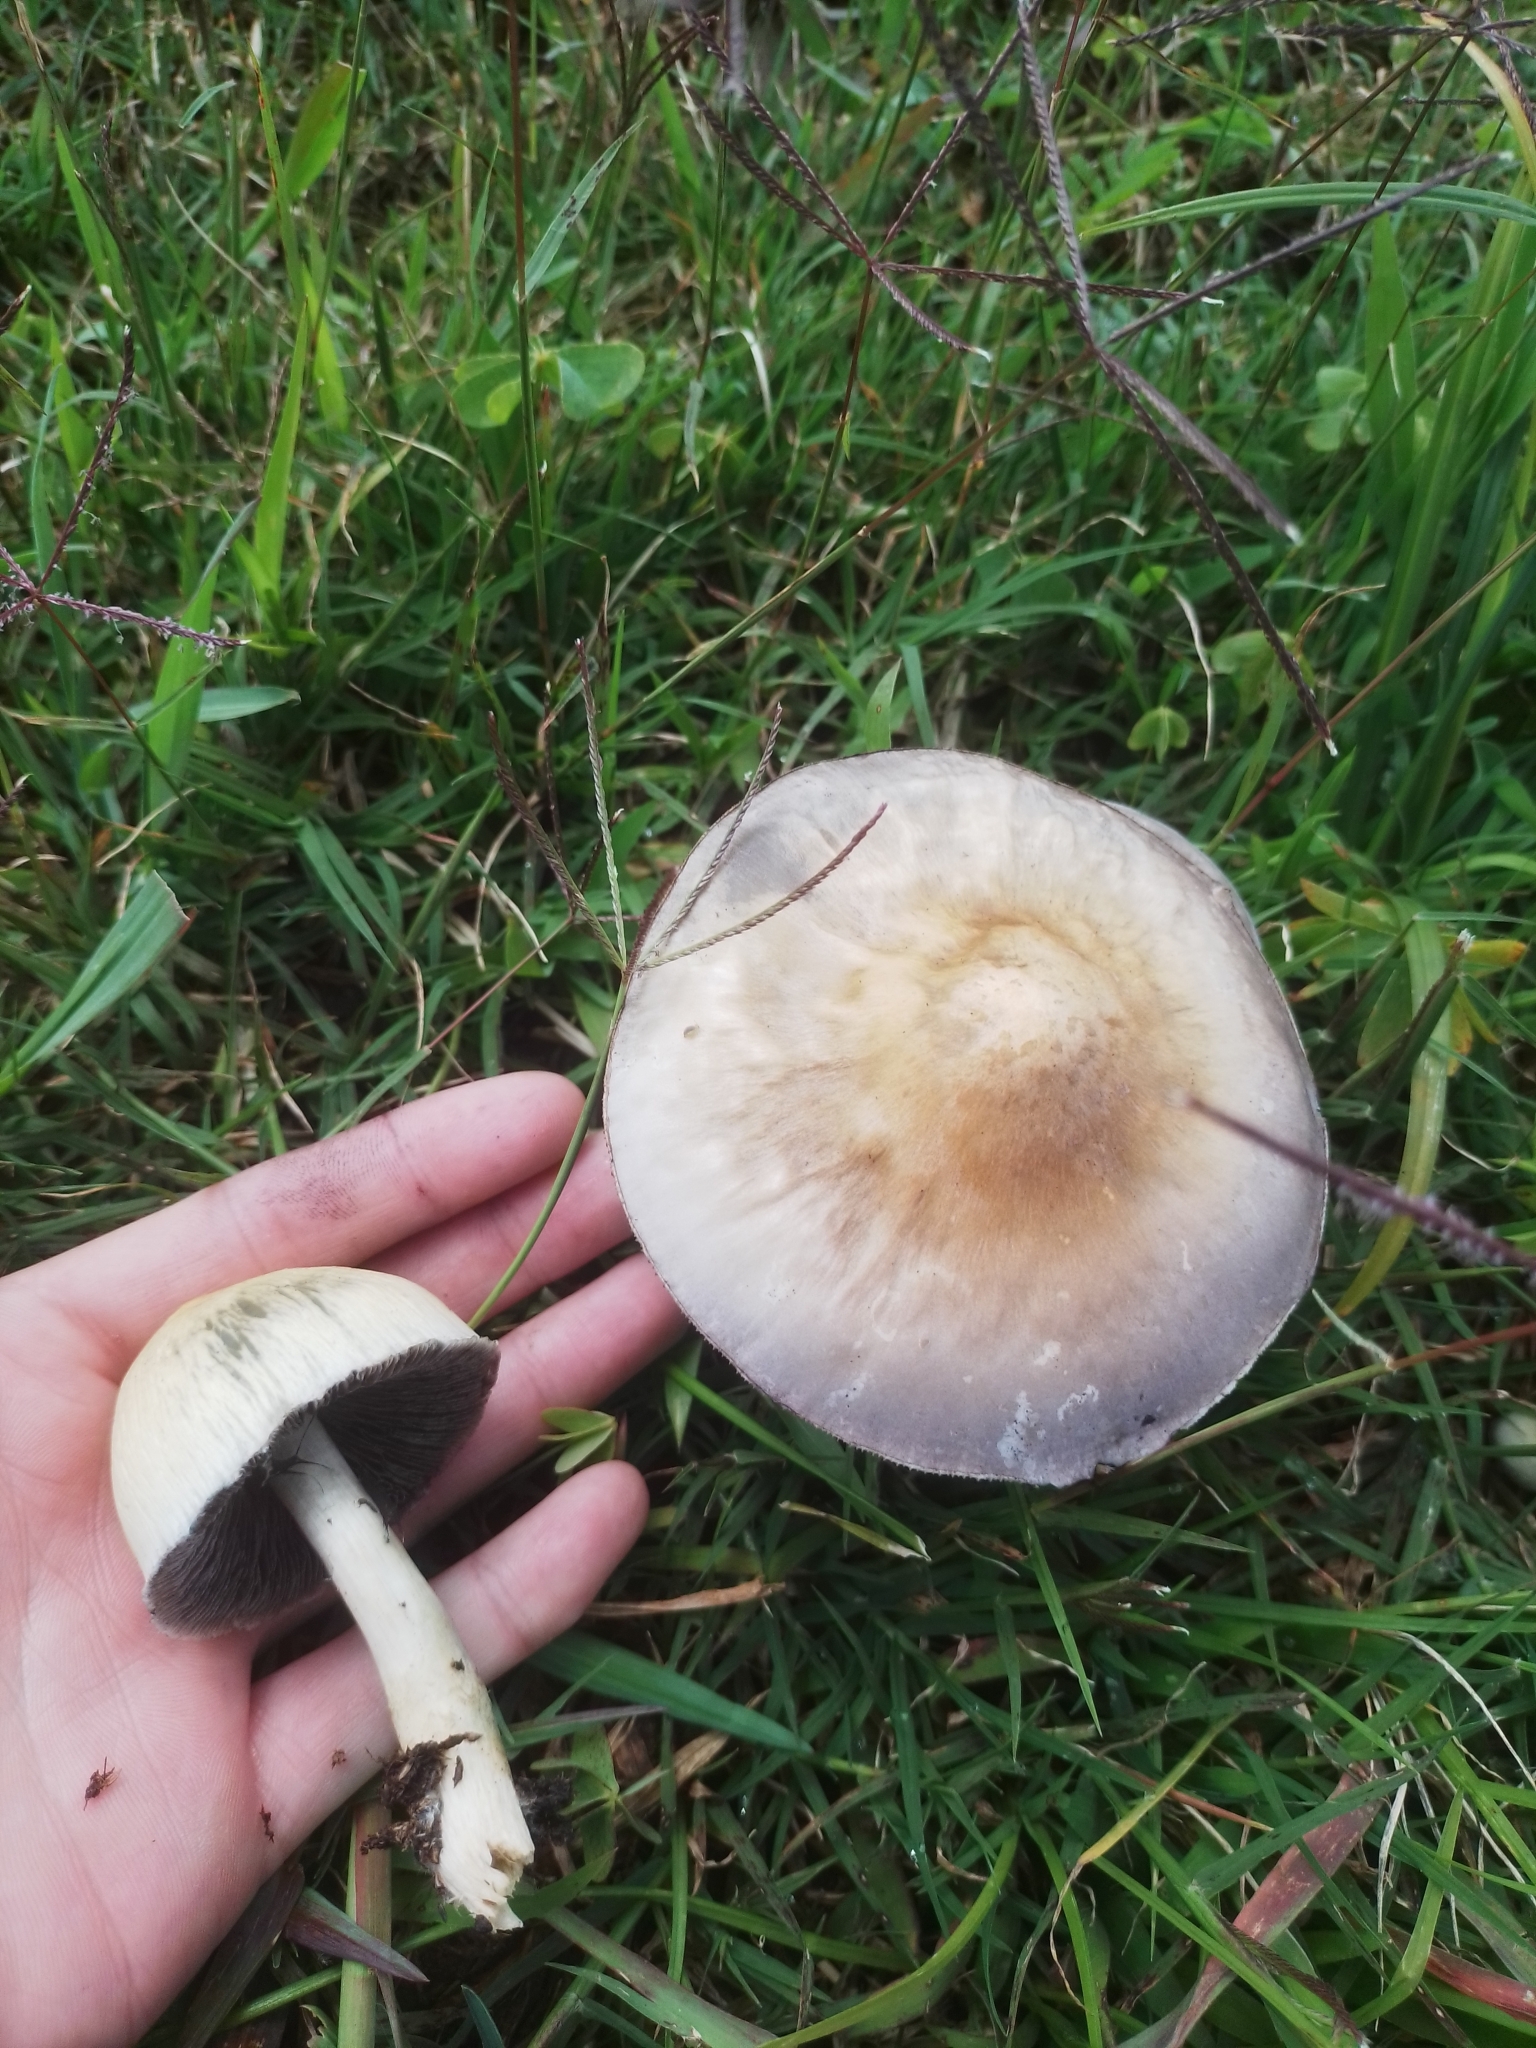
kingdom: Fungi
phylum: Basidiomycota
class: Agaricomycetes
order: Agaricales
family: Hymenogastraceae
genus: Psilocybe
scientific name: Psilocybe cubensis
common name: Golden brownie
